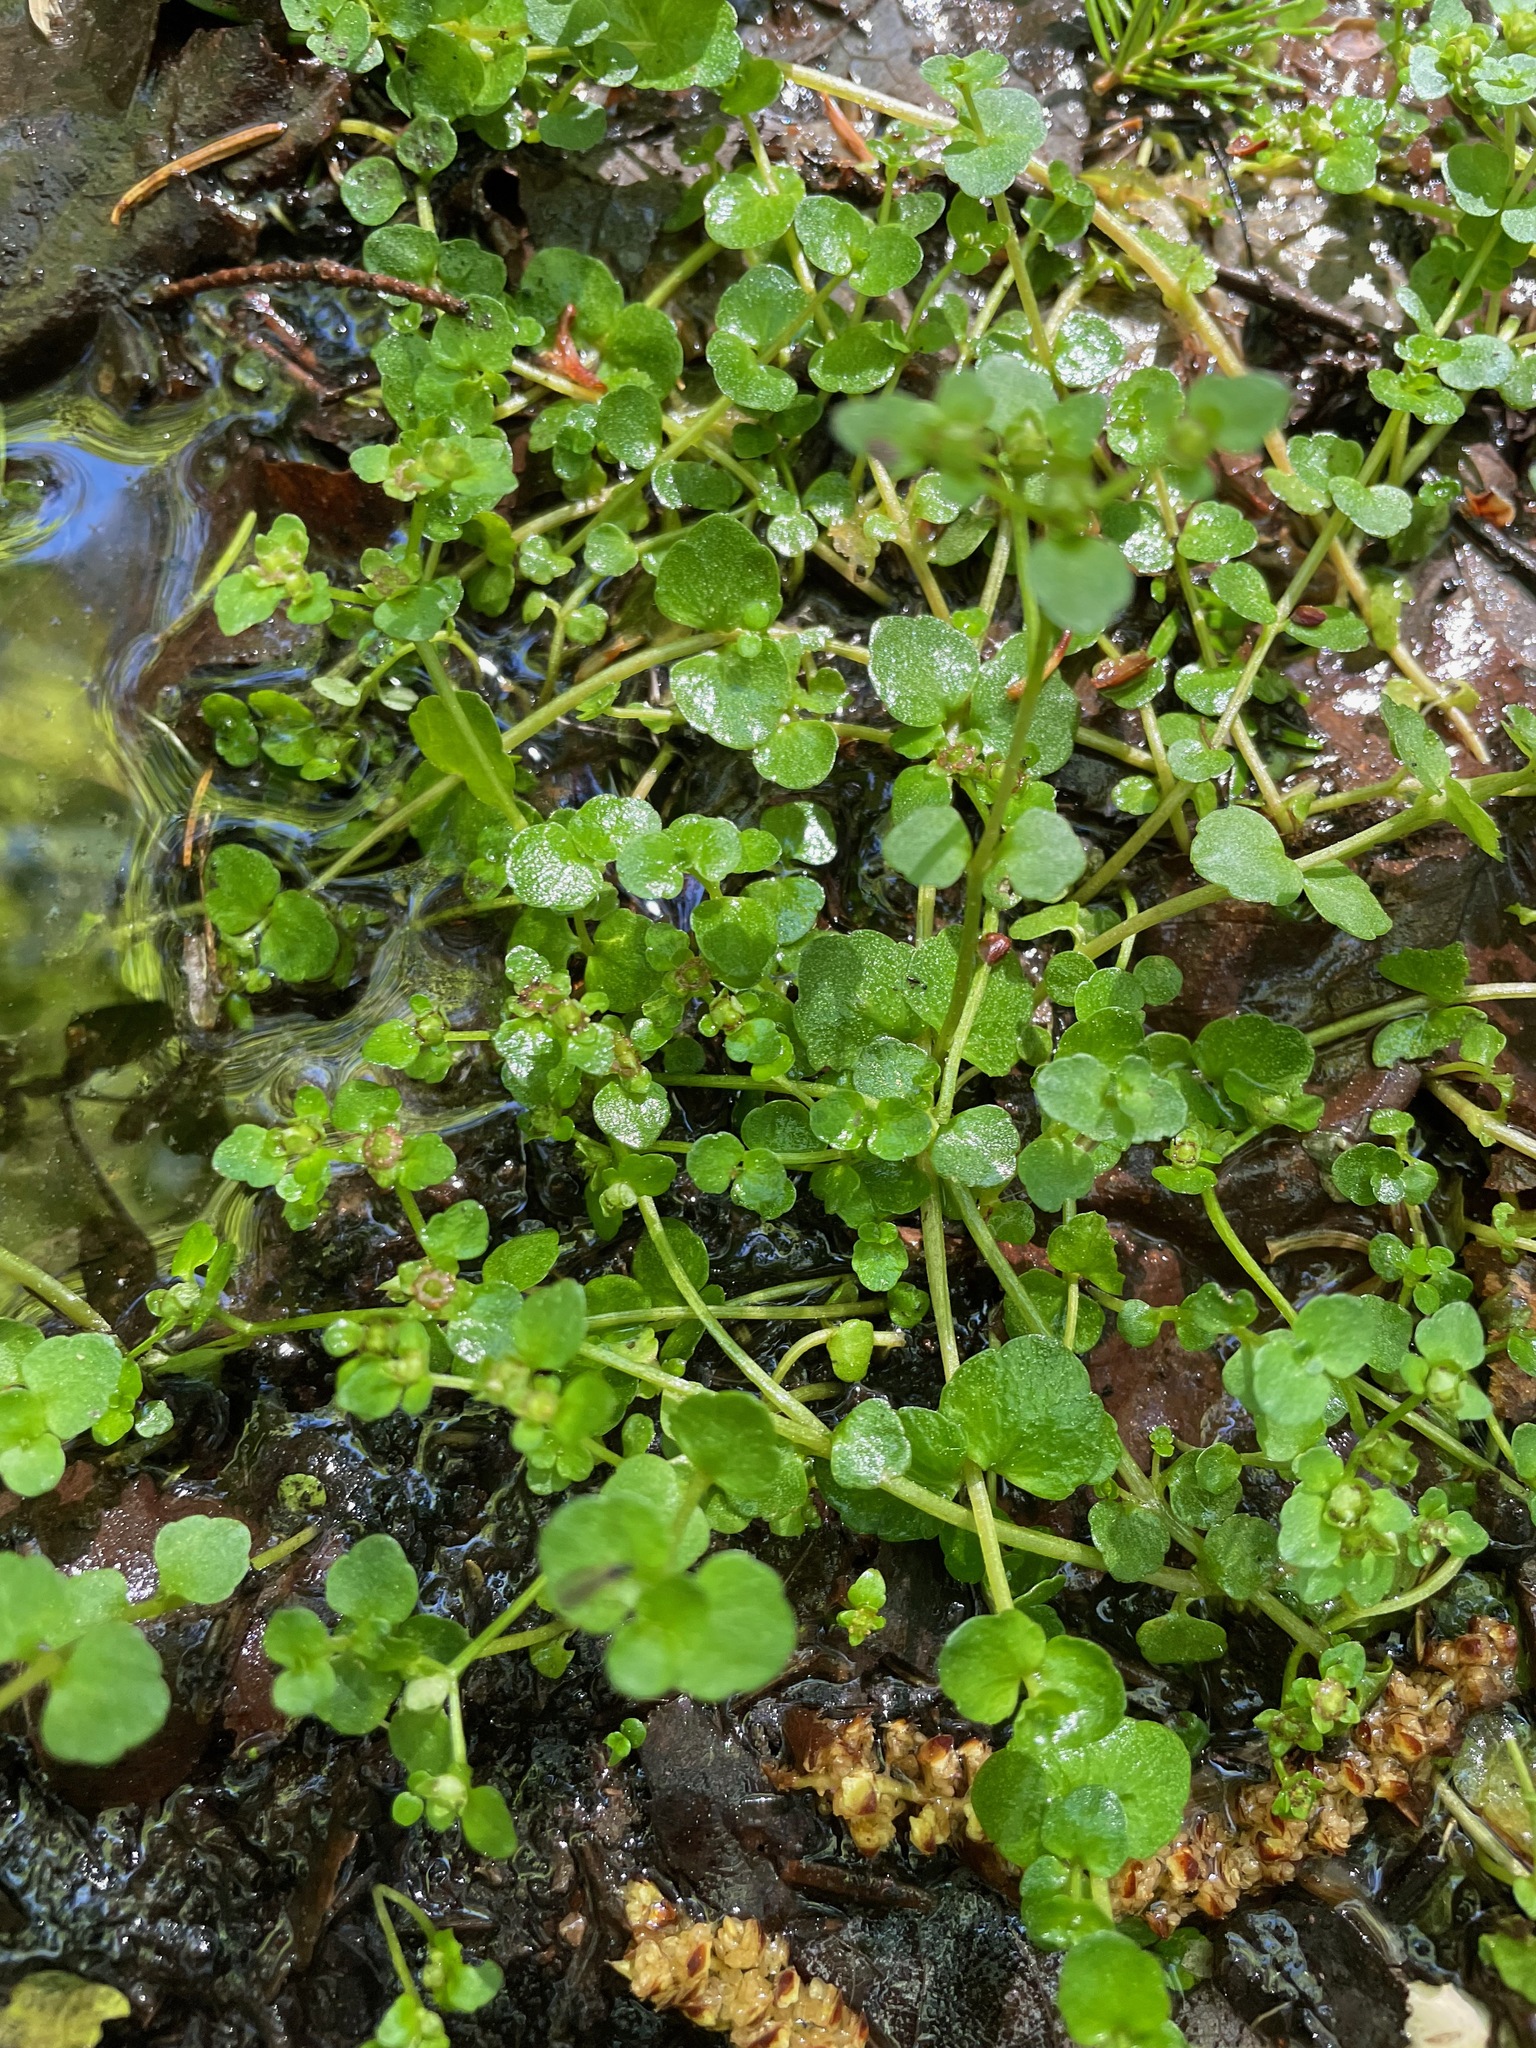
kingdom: Plantae
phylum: Tracheophyta
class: Magnoliopsida
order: Saxifragales
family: Saxifragaceae
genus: Chrysosplenium
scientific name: Chrysosplenium americanum
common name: American golden-saxifrage
